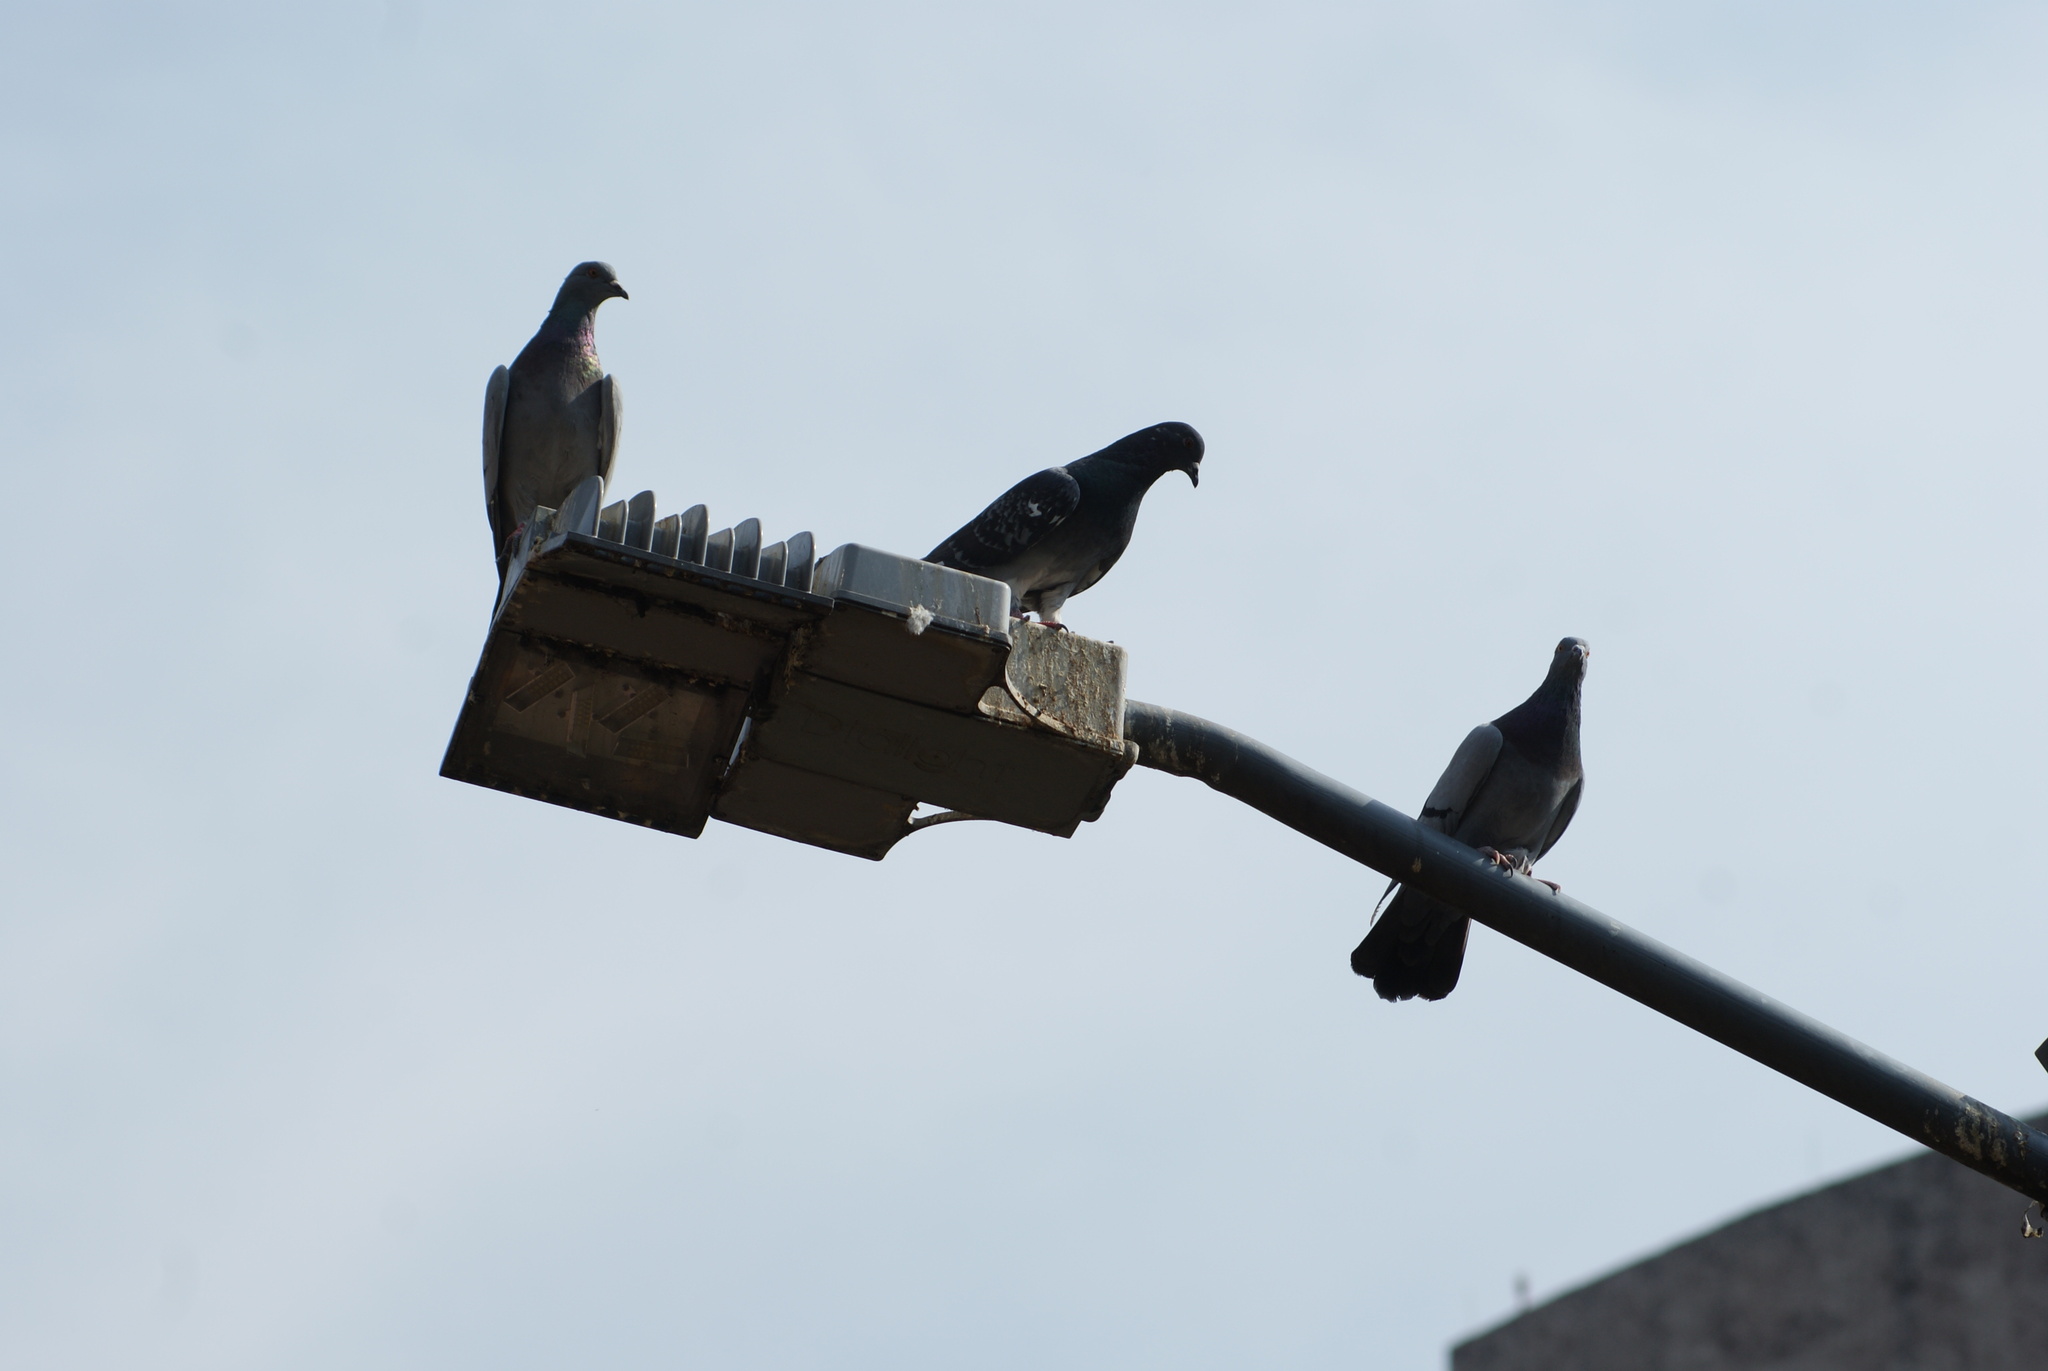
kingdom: Animalia
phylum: Chordata
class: Aves
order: Columbiformes
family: Columbidae
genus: Columba
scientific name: Columba livia
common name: Rock pigeon
